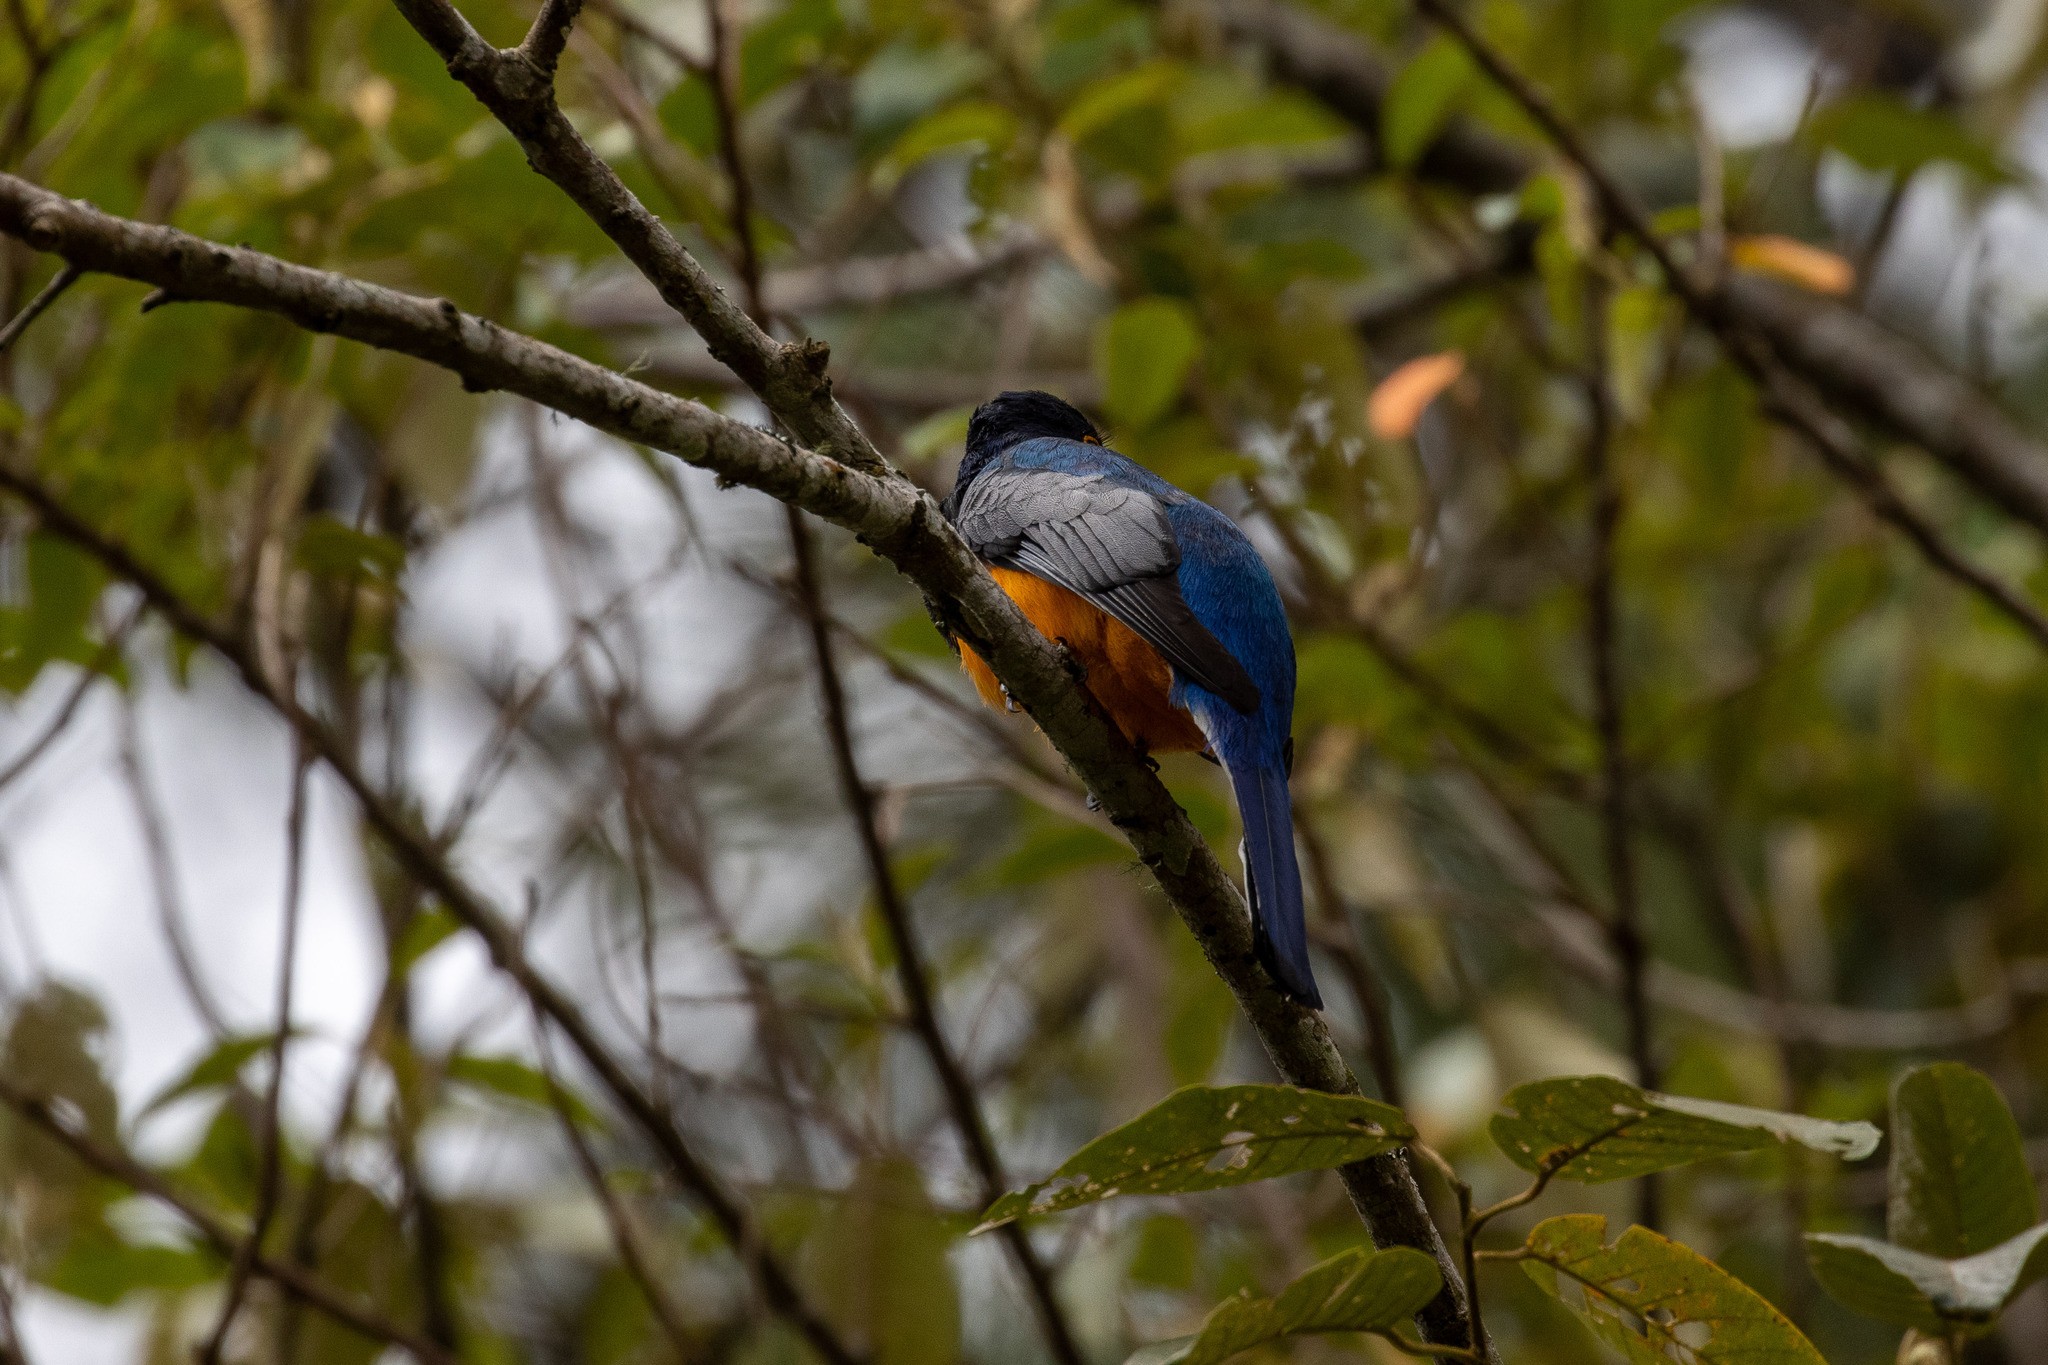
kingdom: Animalia
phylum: Chordata
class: Aves
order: Trogoniformes
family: Trogonidae
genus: Trogon
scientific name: Trogon surrucura
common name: Surucua trogon
